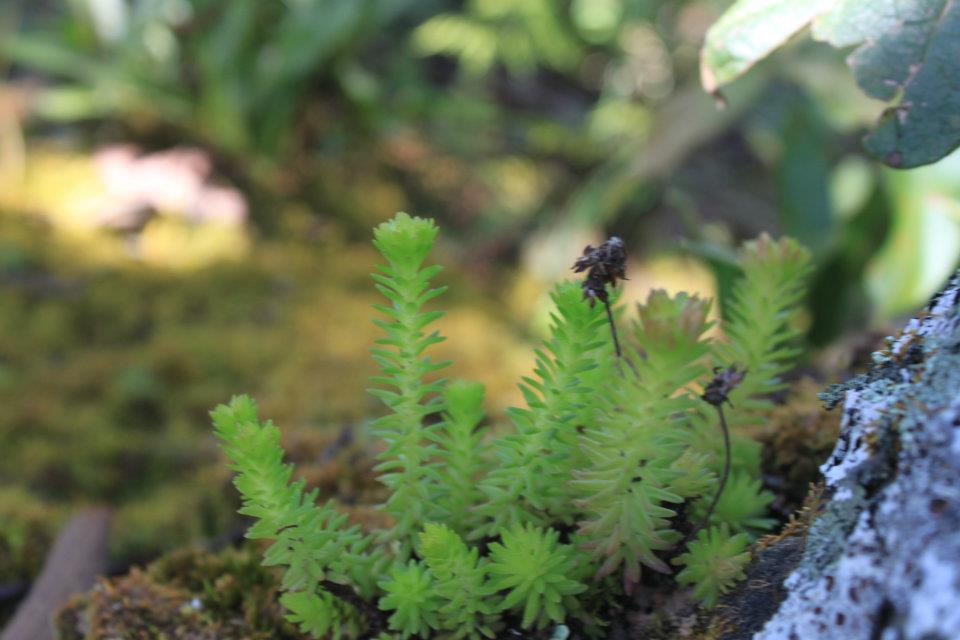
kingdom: Plantae
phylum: Tracheophyta
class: Magnoliopsida
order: Saxifragales
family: Crassulaceae
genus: Sedum
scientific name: Sedum liebmannianum
